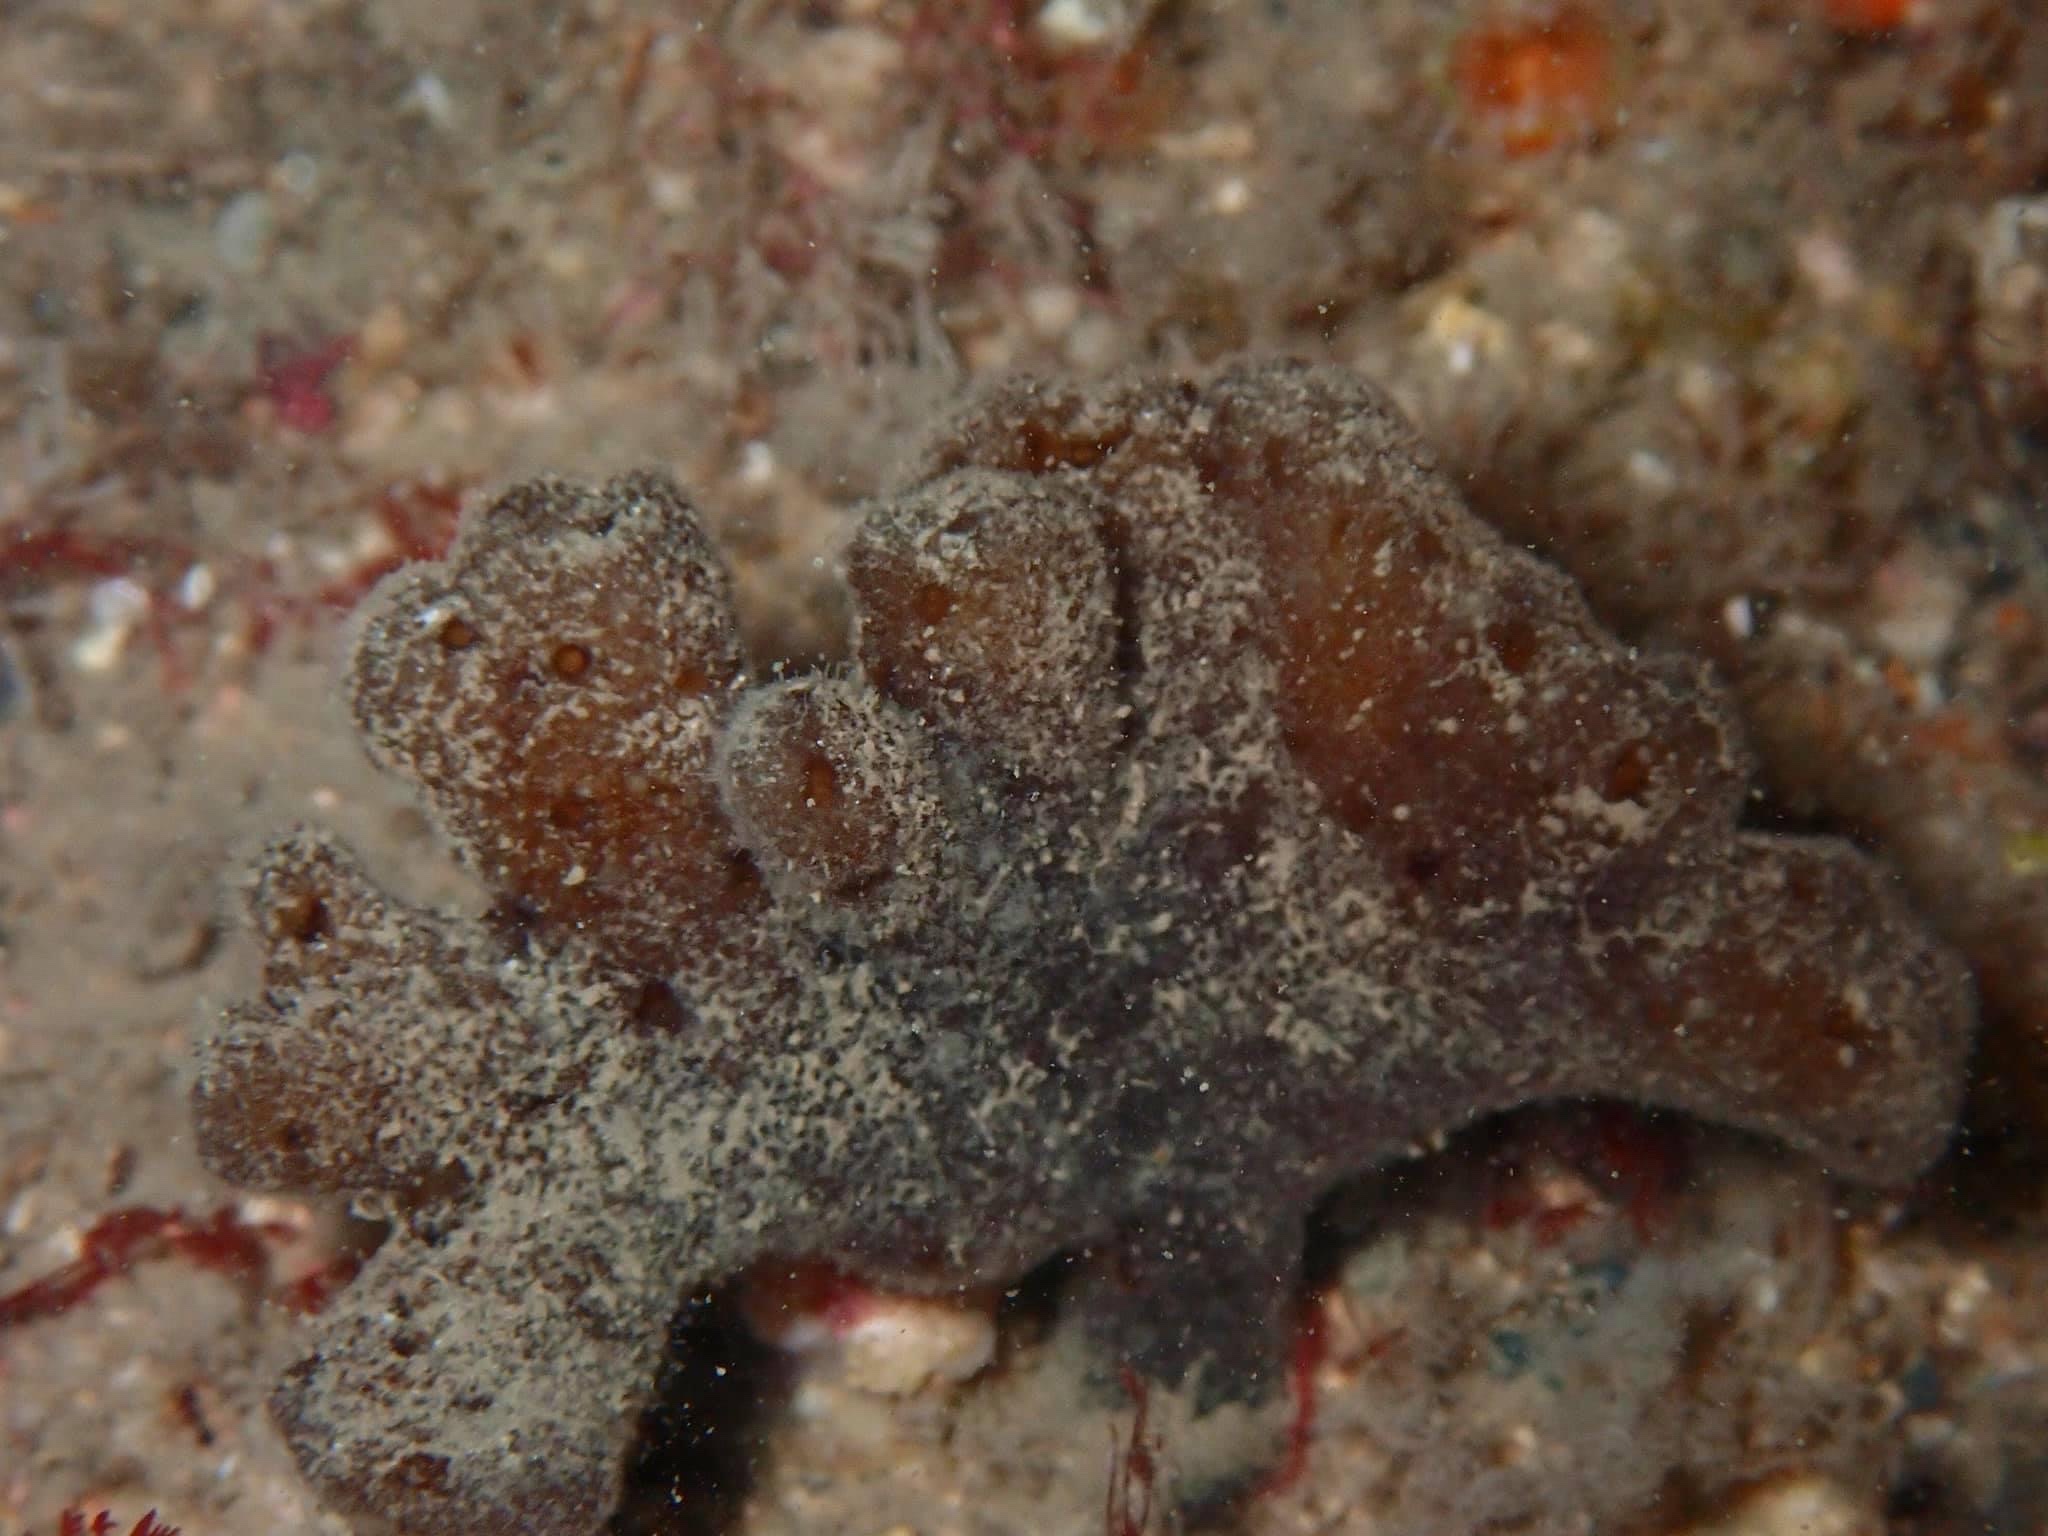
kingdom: Animalia
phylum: Porifera
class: Demospongiae
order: Axinellida
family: Raspailiidae
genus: Raspailia
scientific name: Raspailia ramosa
